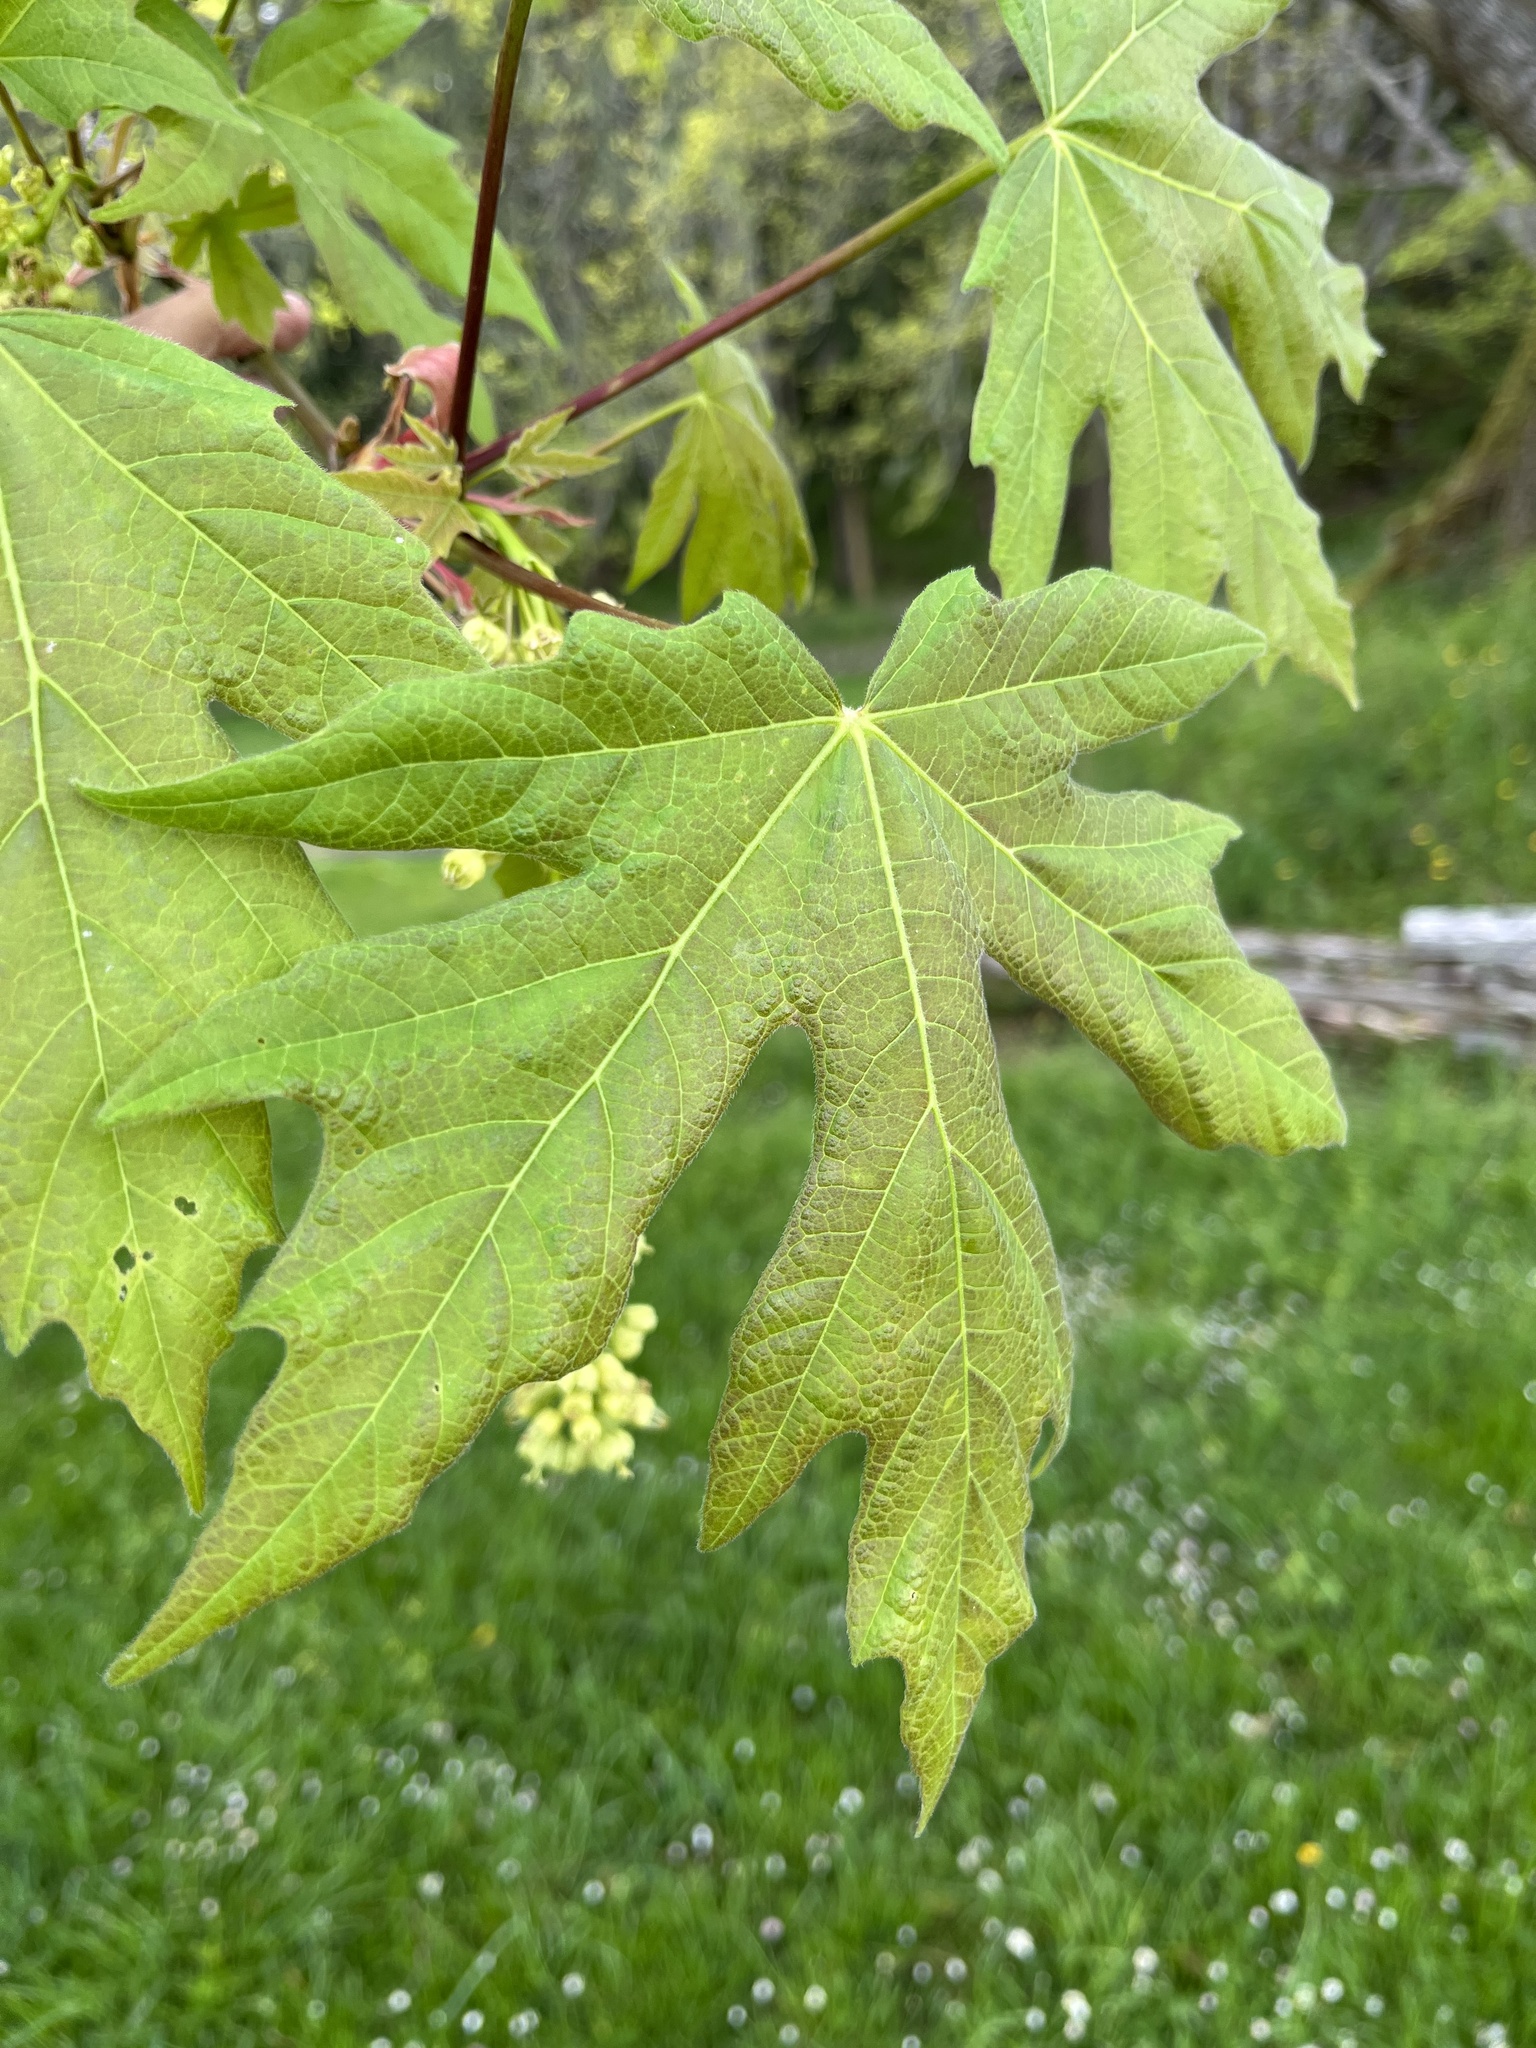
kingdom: Plantae
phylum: Tracheophyta
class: Magnoliopsida
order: Sapindales
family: Sapindaceae
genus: Acer
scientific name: Acer macrophyllum
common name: Oregon maple
